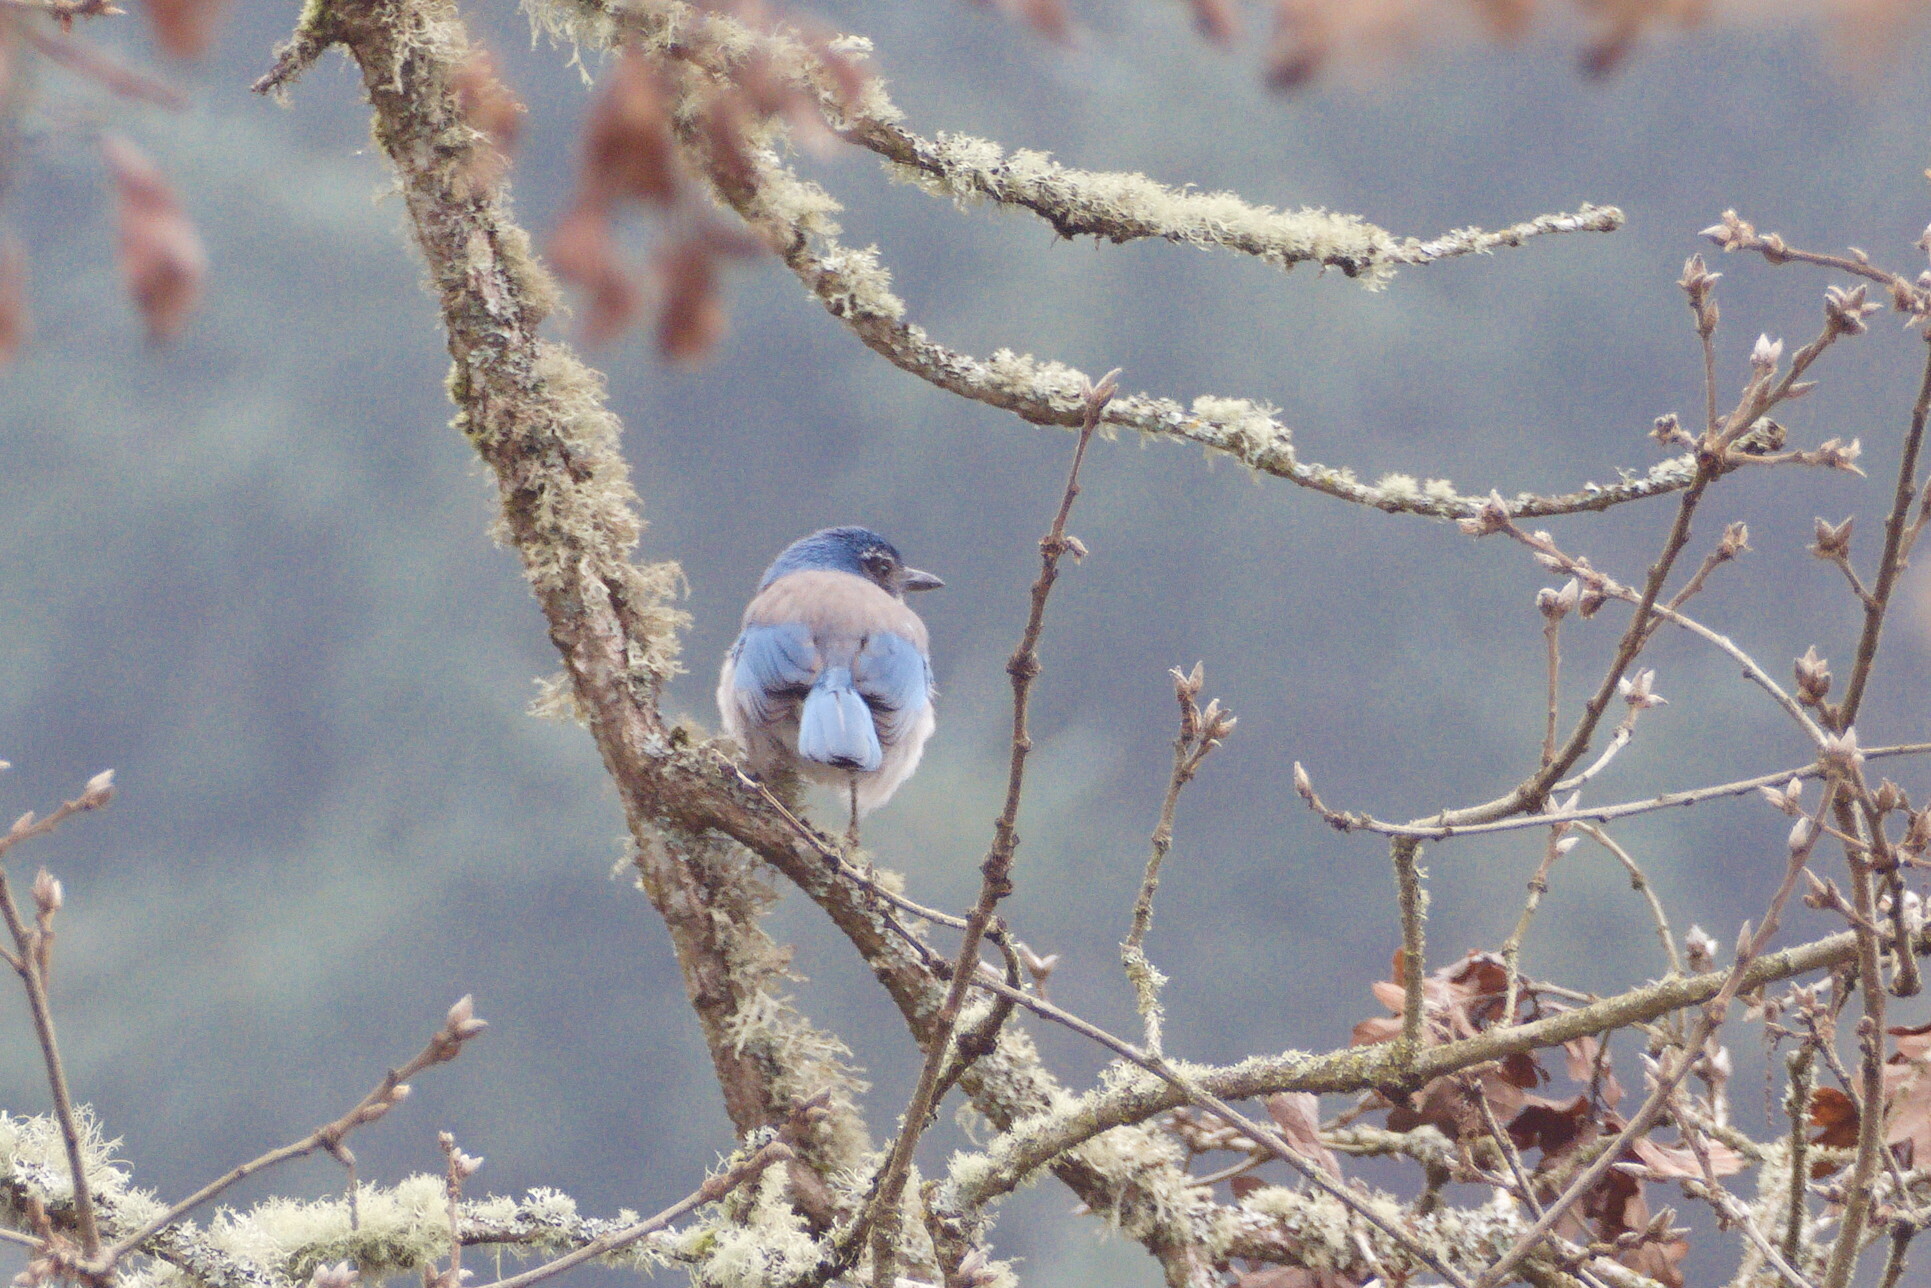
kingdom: Animalia
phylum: Chordata
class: Aves
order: Passeriformes
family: Corvidae
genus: Aphelocoma
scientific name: Aphelocoma californica
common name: California scrub-jay
